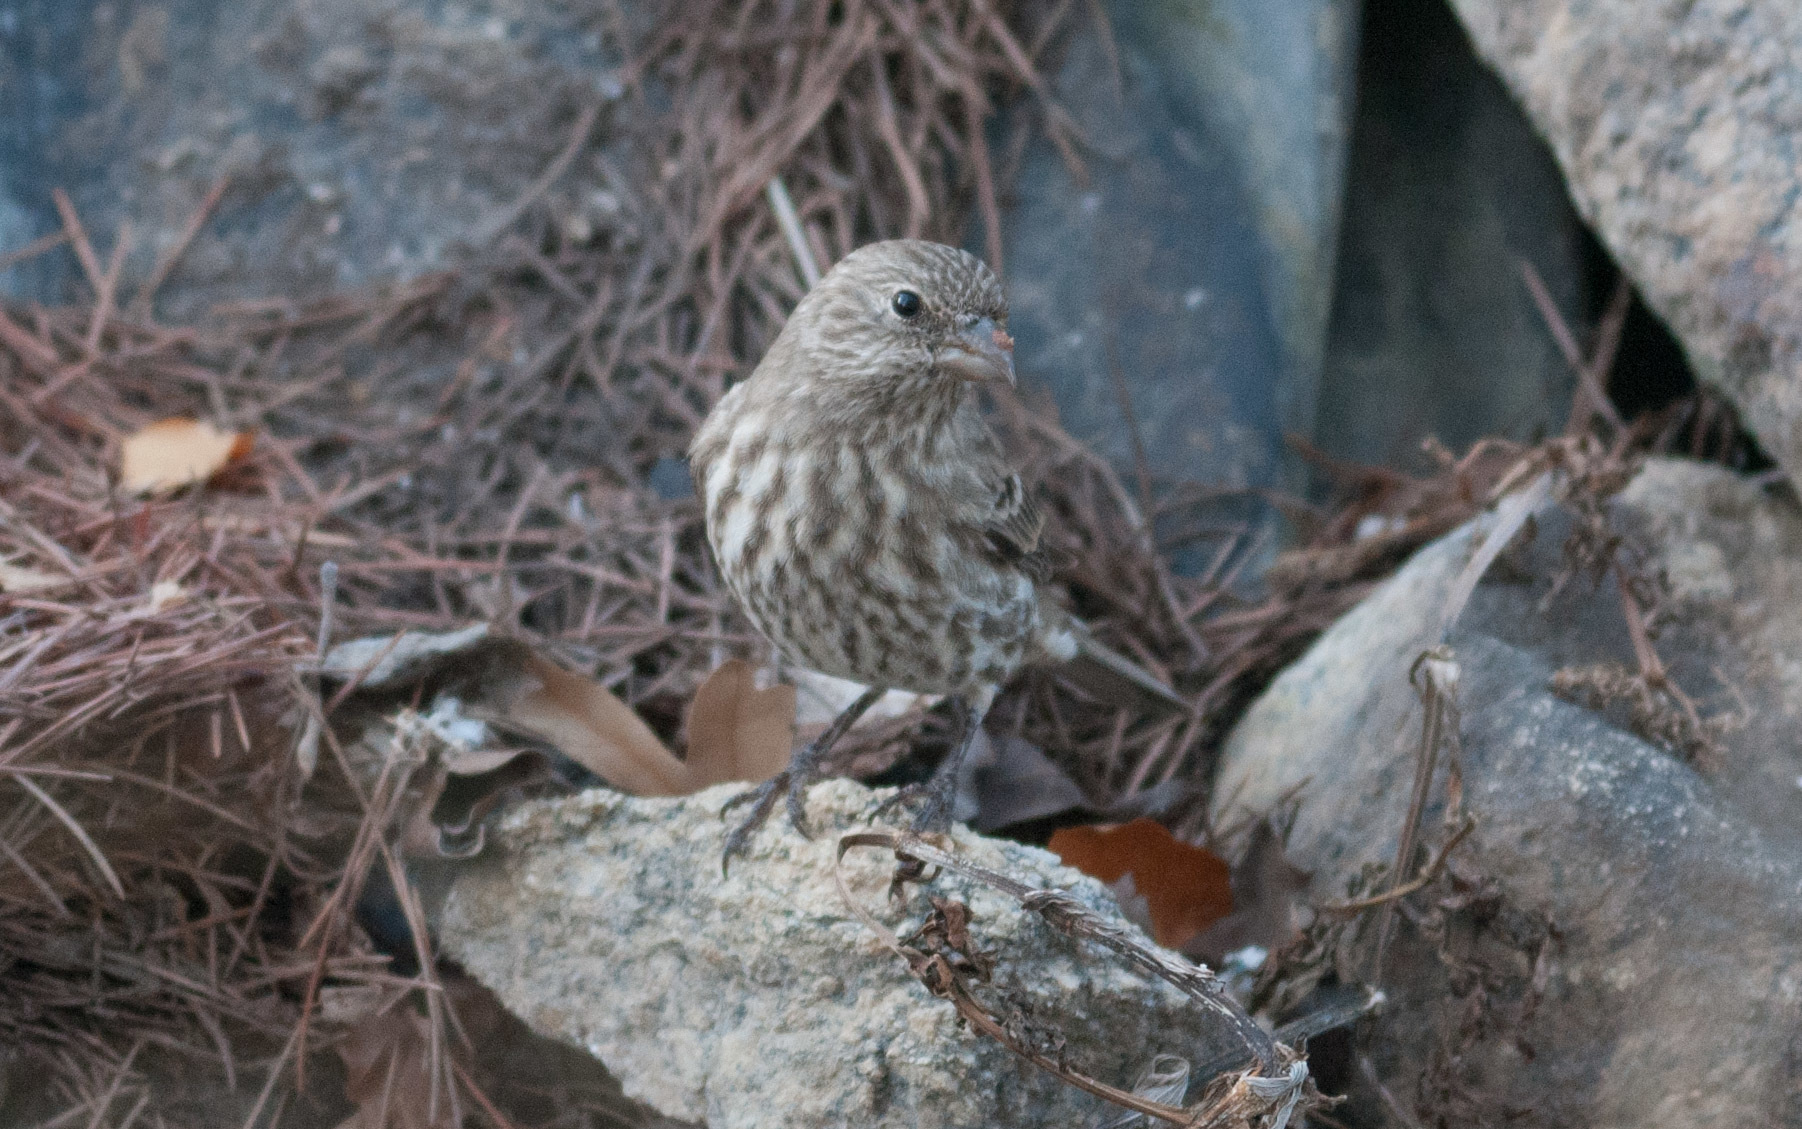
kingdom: Animalia
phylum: Chordata
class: Aves
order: Passeriformes
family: Fringillidae
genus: Haemorhous
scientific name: Haemorhous mexicanus
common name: House finch
